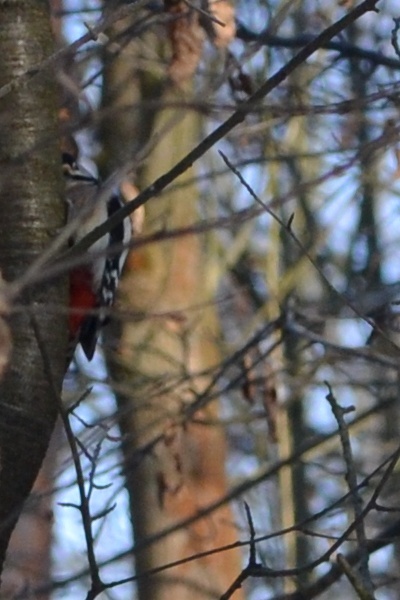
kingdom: Animalia
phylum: Chordata
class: Aves
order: Piciformes
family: Picidae
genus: Dendrocopos
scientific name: Dendrocopos major
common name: Great spotted woodpecker
